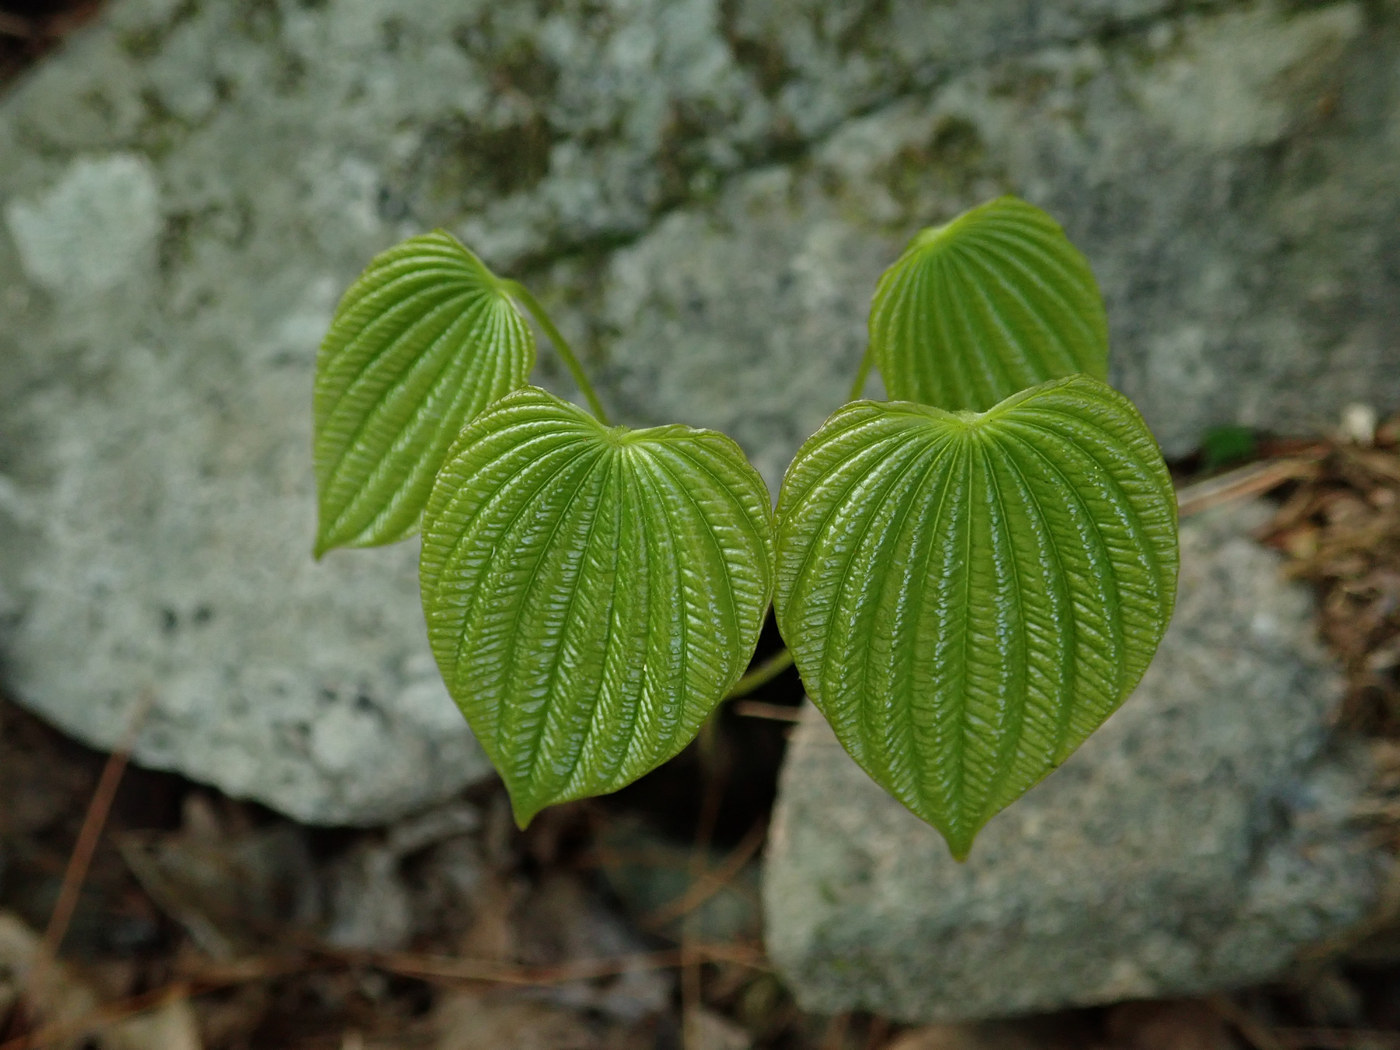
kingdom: Plantae
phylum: Tracheophyta
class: Liliopsida
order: Dioscoreales
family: Dioscoreaceae
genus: Dioscorea
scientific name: Dioscorea villosa
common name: Wild yam
